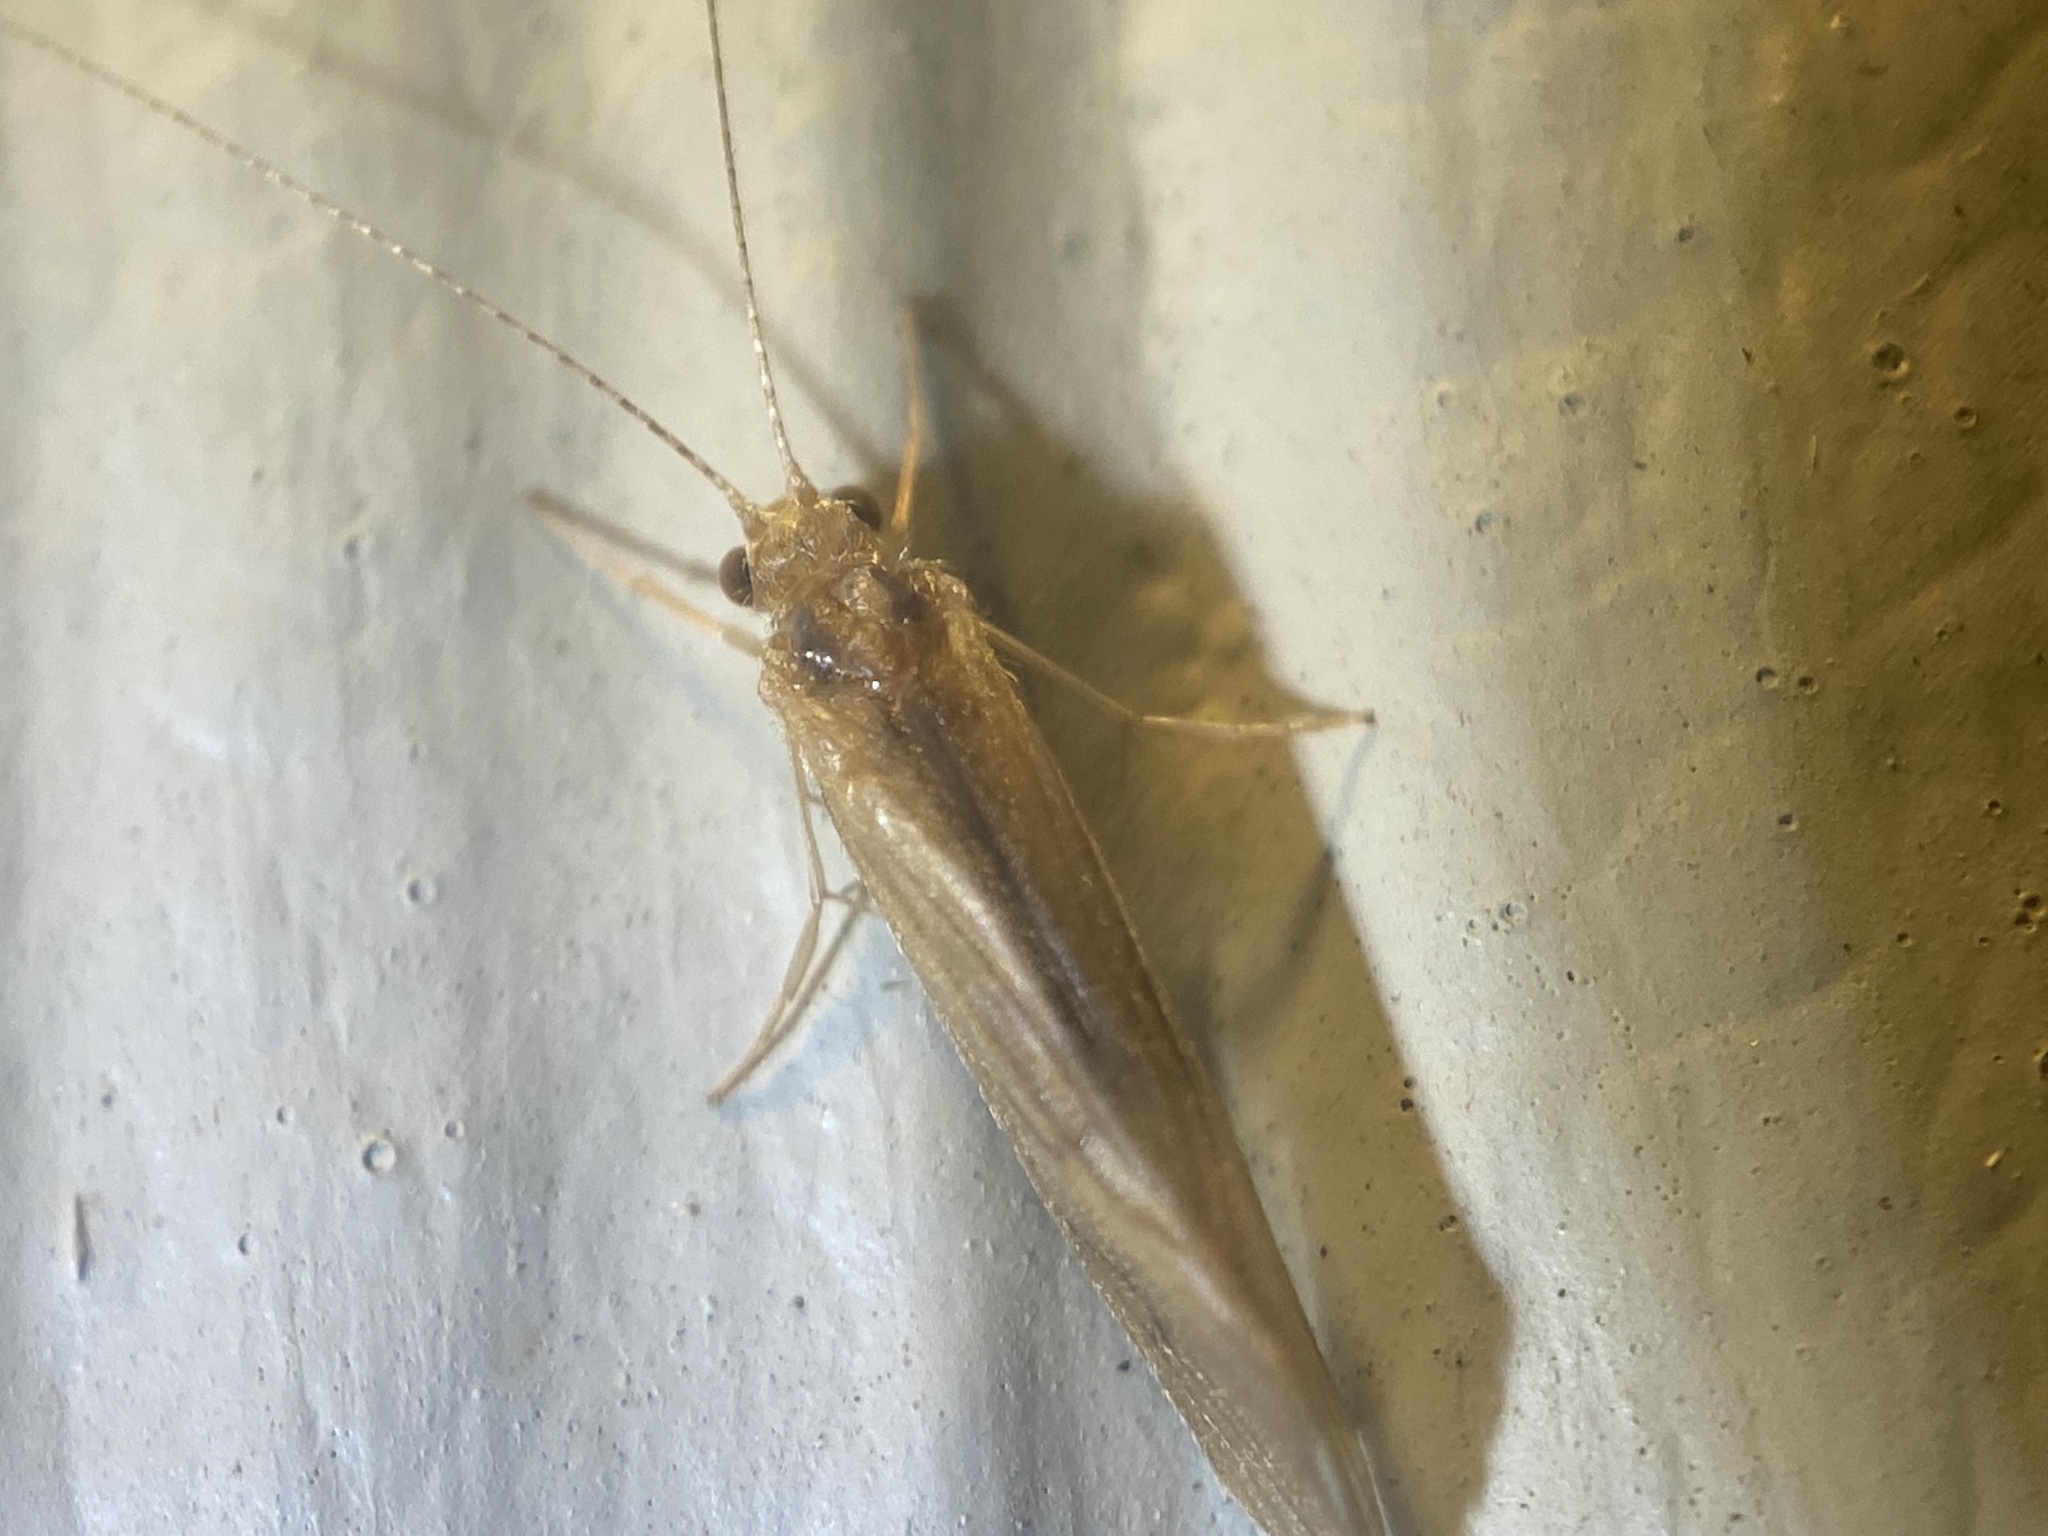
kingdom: Animalia
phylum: Arthropoda
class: Insecta
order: Trichoptera
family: Hydropsychidae
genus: Potamyia
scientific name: Potamyia flava
